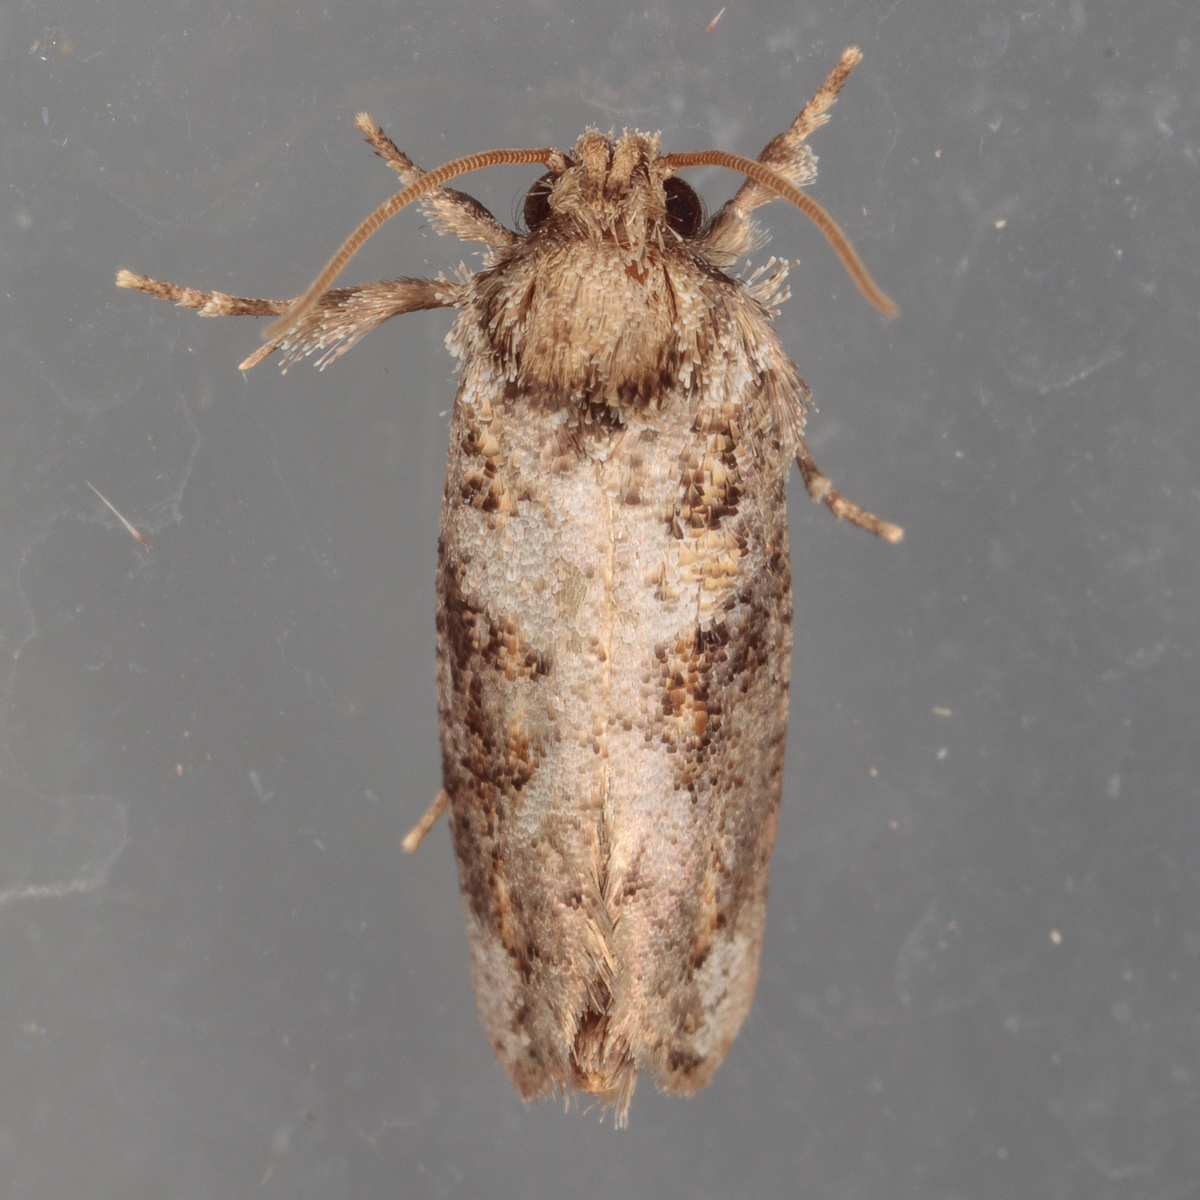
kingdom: Animalia
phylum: Arthropoda
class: Insecta
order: Lepidoptera
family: Tineidae
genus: Acrolophus
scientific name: Acrolophus piger
